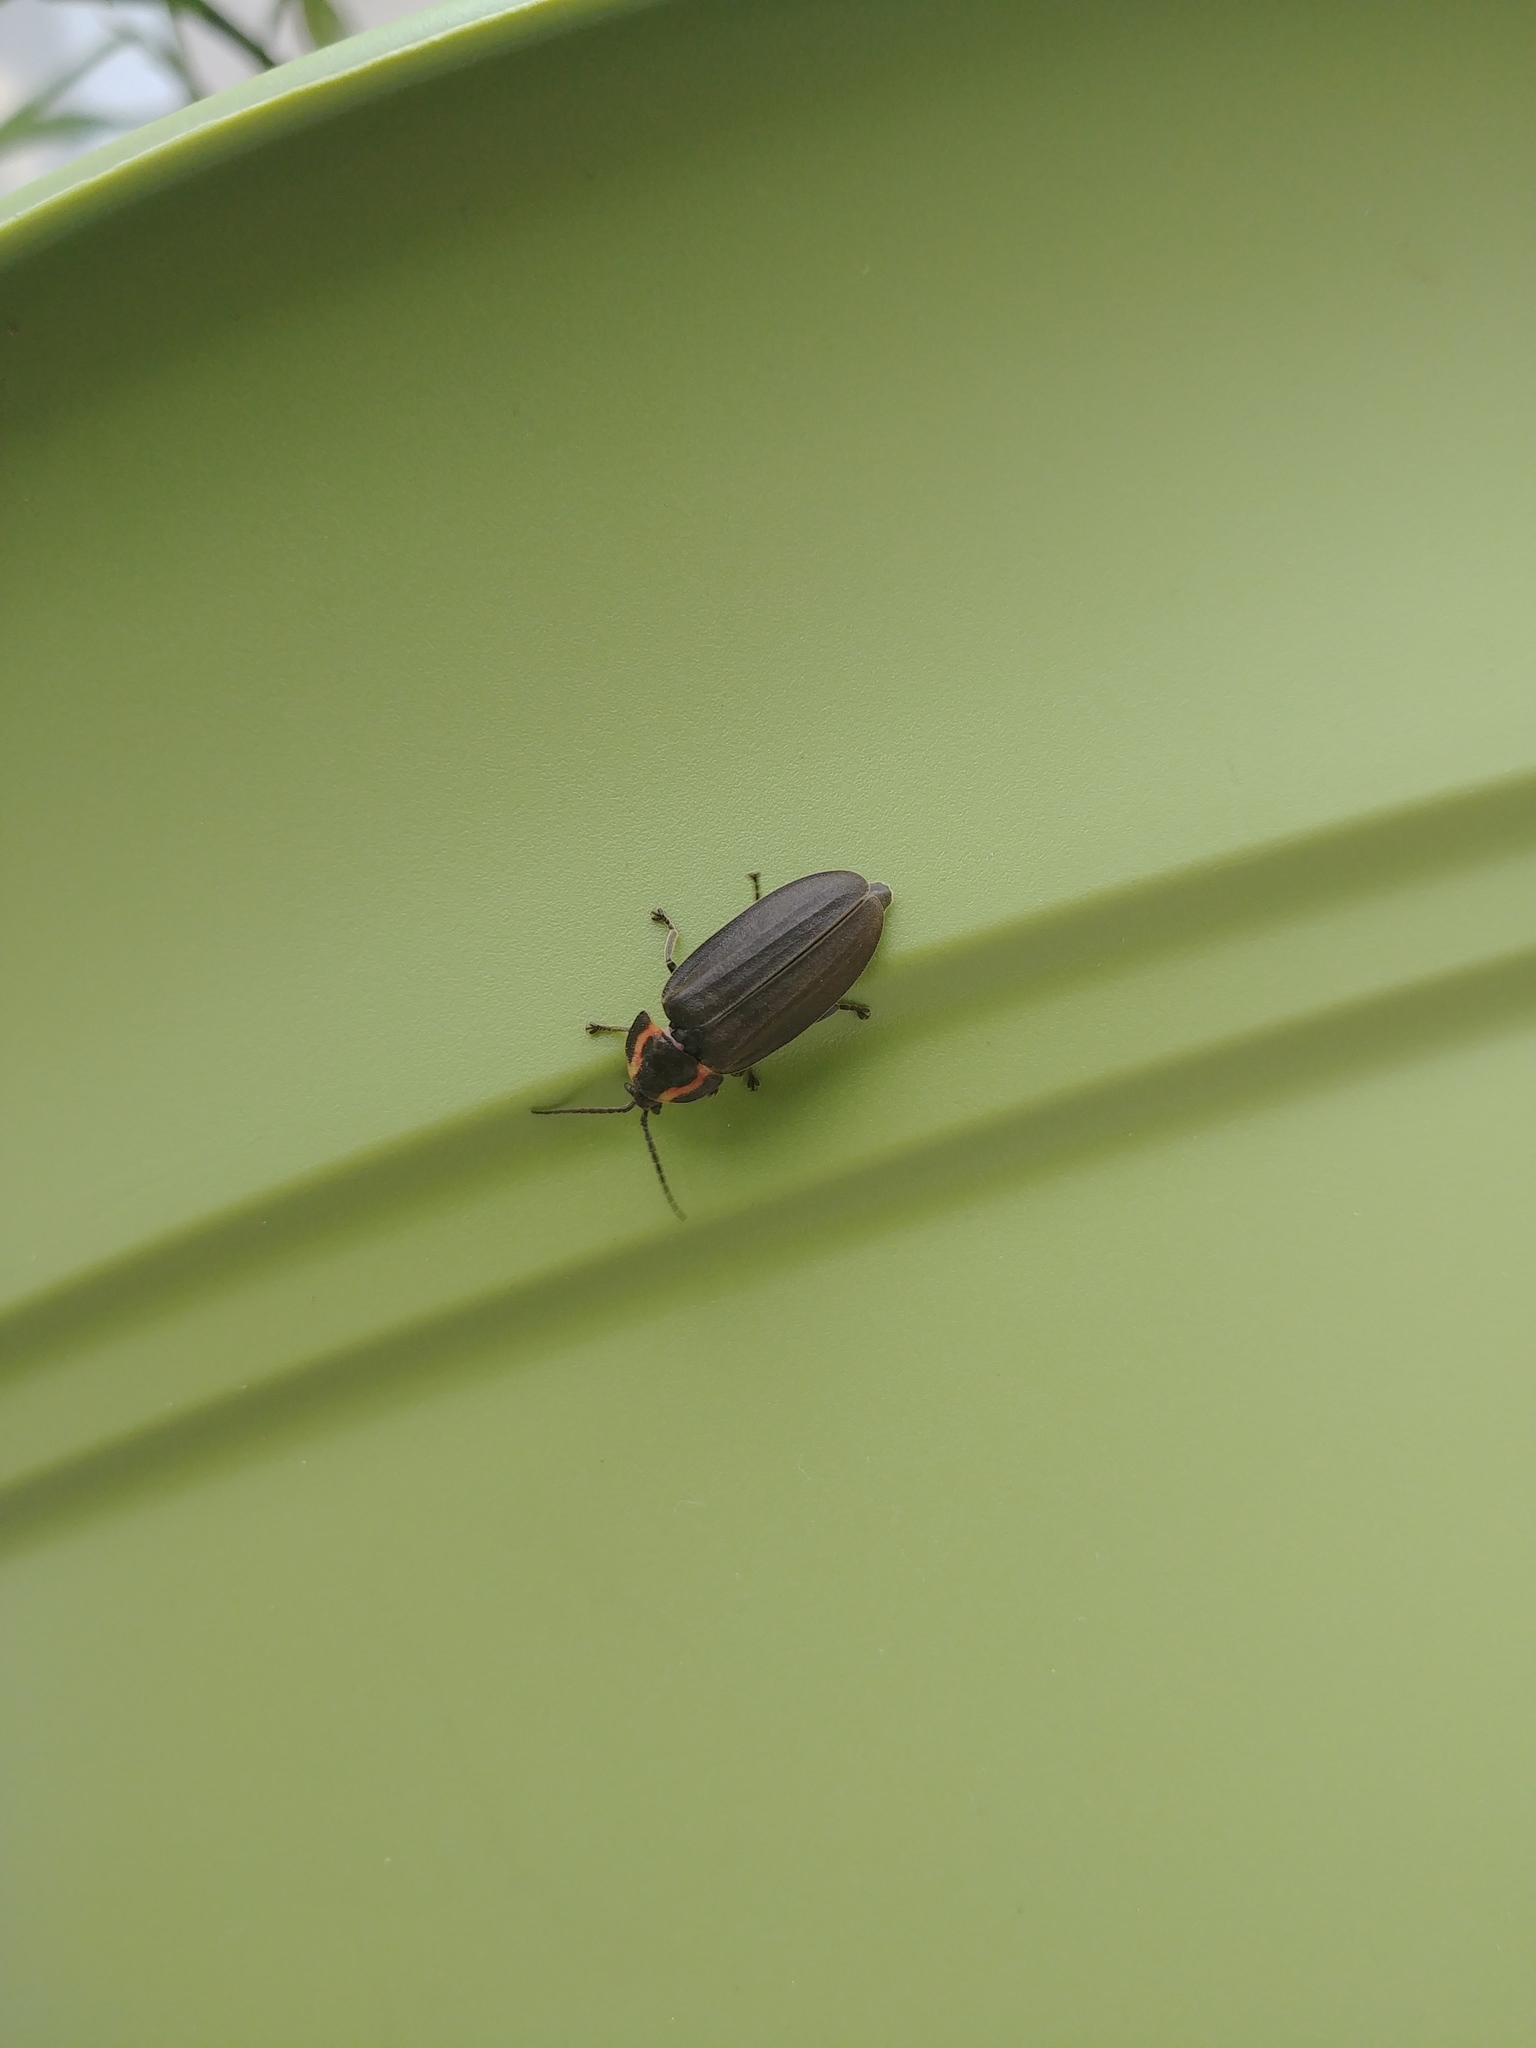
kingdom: Animalia
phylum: Arthropoda
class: Insecta
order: Coleoptera
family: Lampyridae
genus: Photinus
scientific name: Photinus corrusca
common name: Winter firefly
